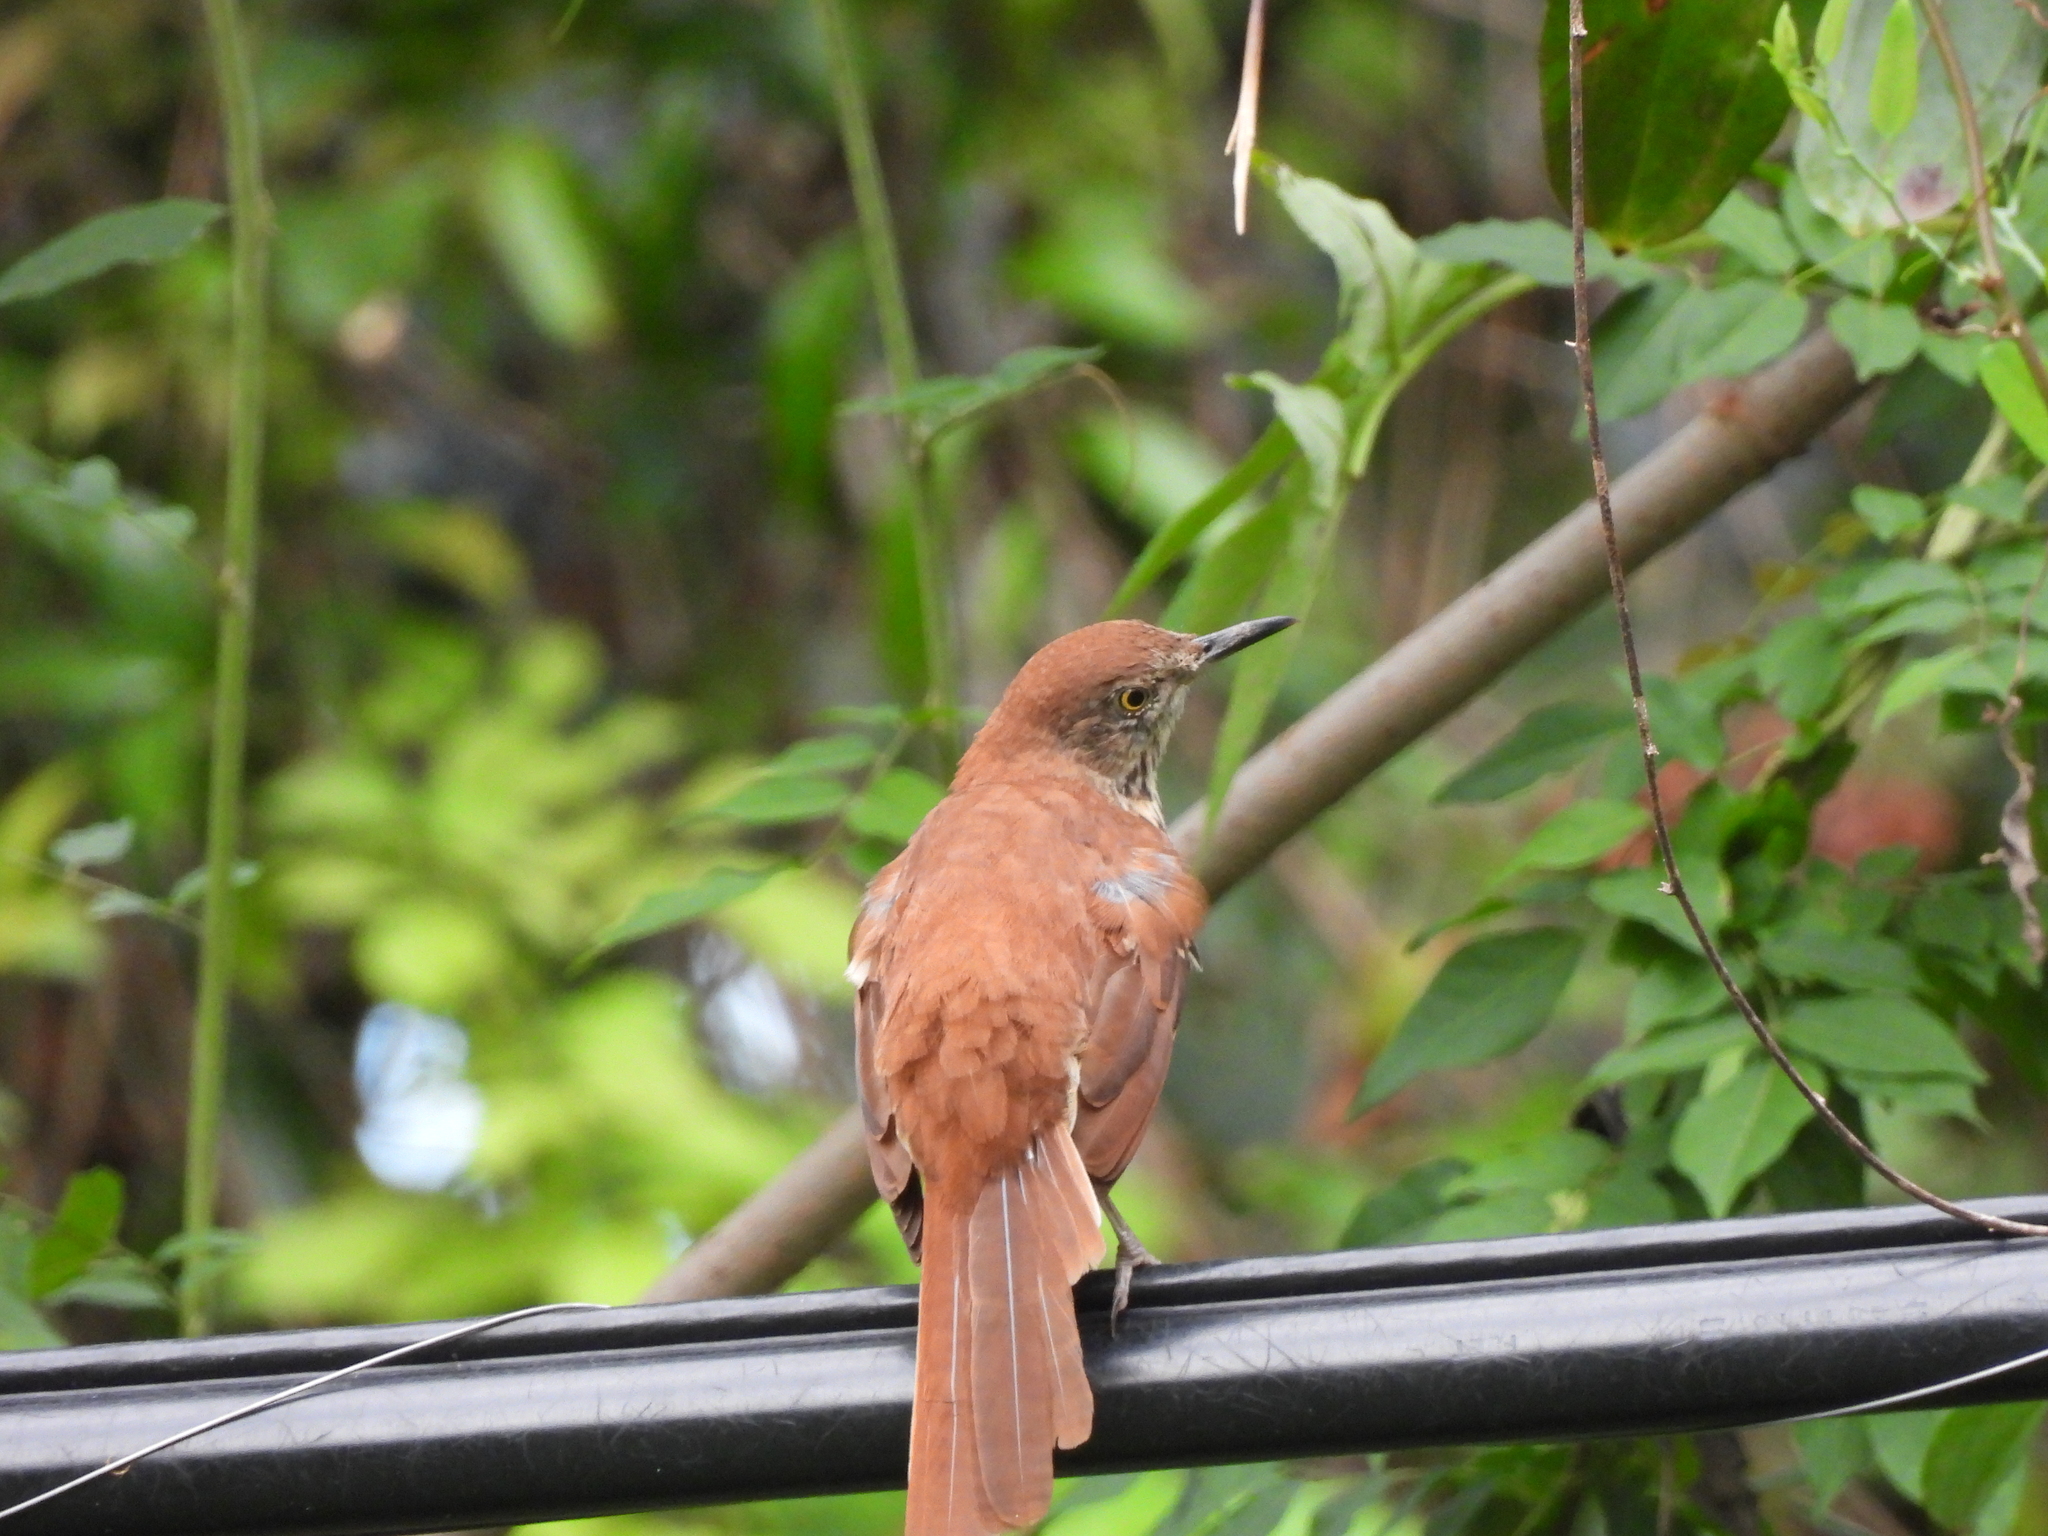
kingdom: Animalia
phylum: Chordata
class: Aves
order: Passeriformes
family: Mimidae
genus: Toxostoma
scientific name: Toxostoma rufum
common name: Brown thrasher
